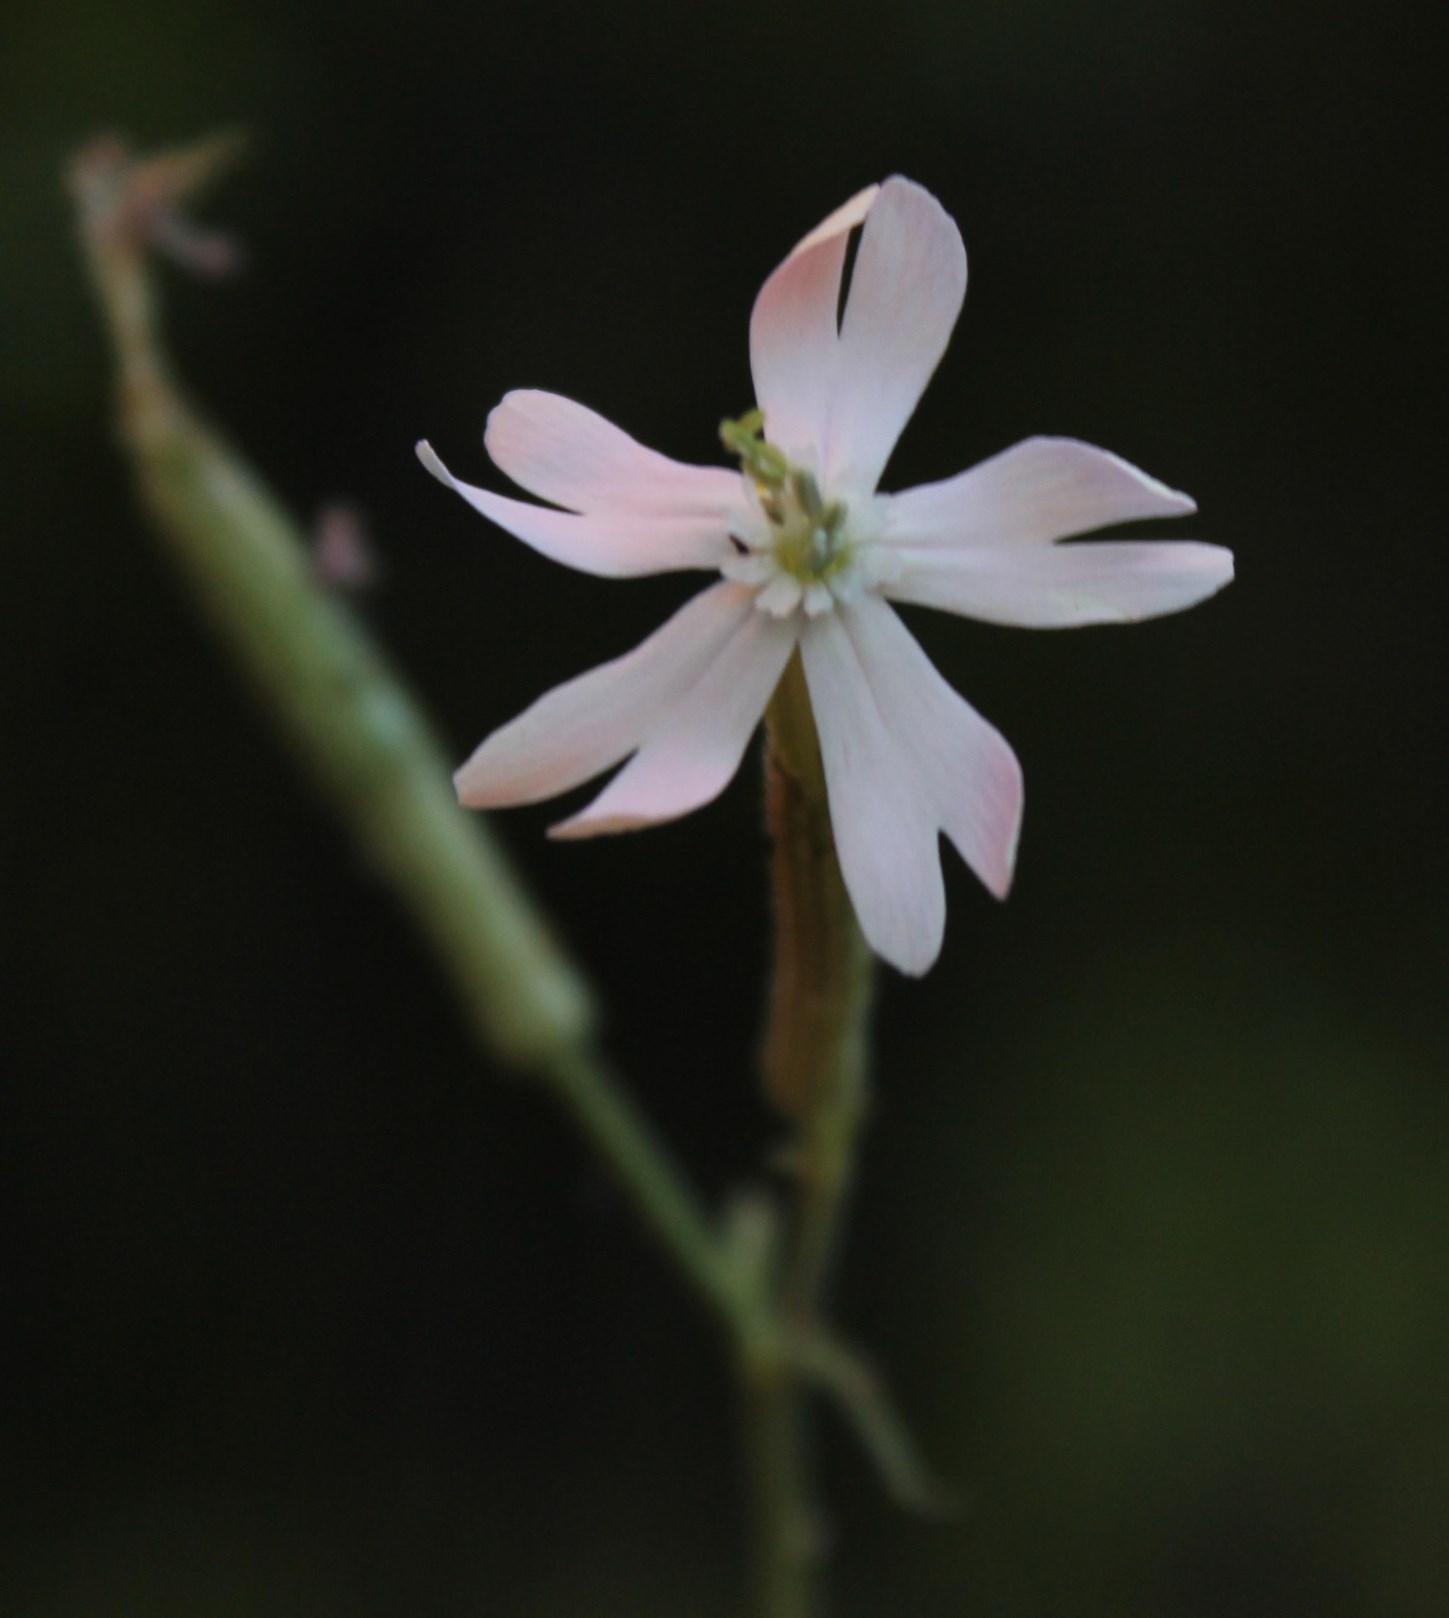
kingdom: Plantae
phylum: Tracheophyta
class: Magnoliopsida
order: Caryophyllales
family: Caryophyllaceae
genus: Silene
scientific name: Silene undulata
